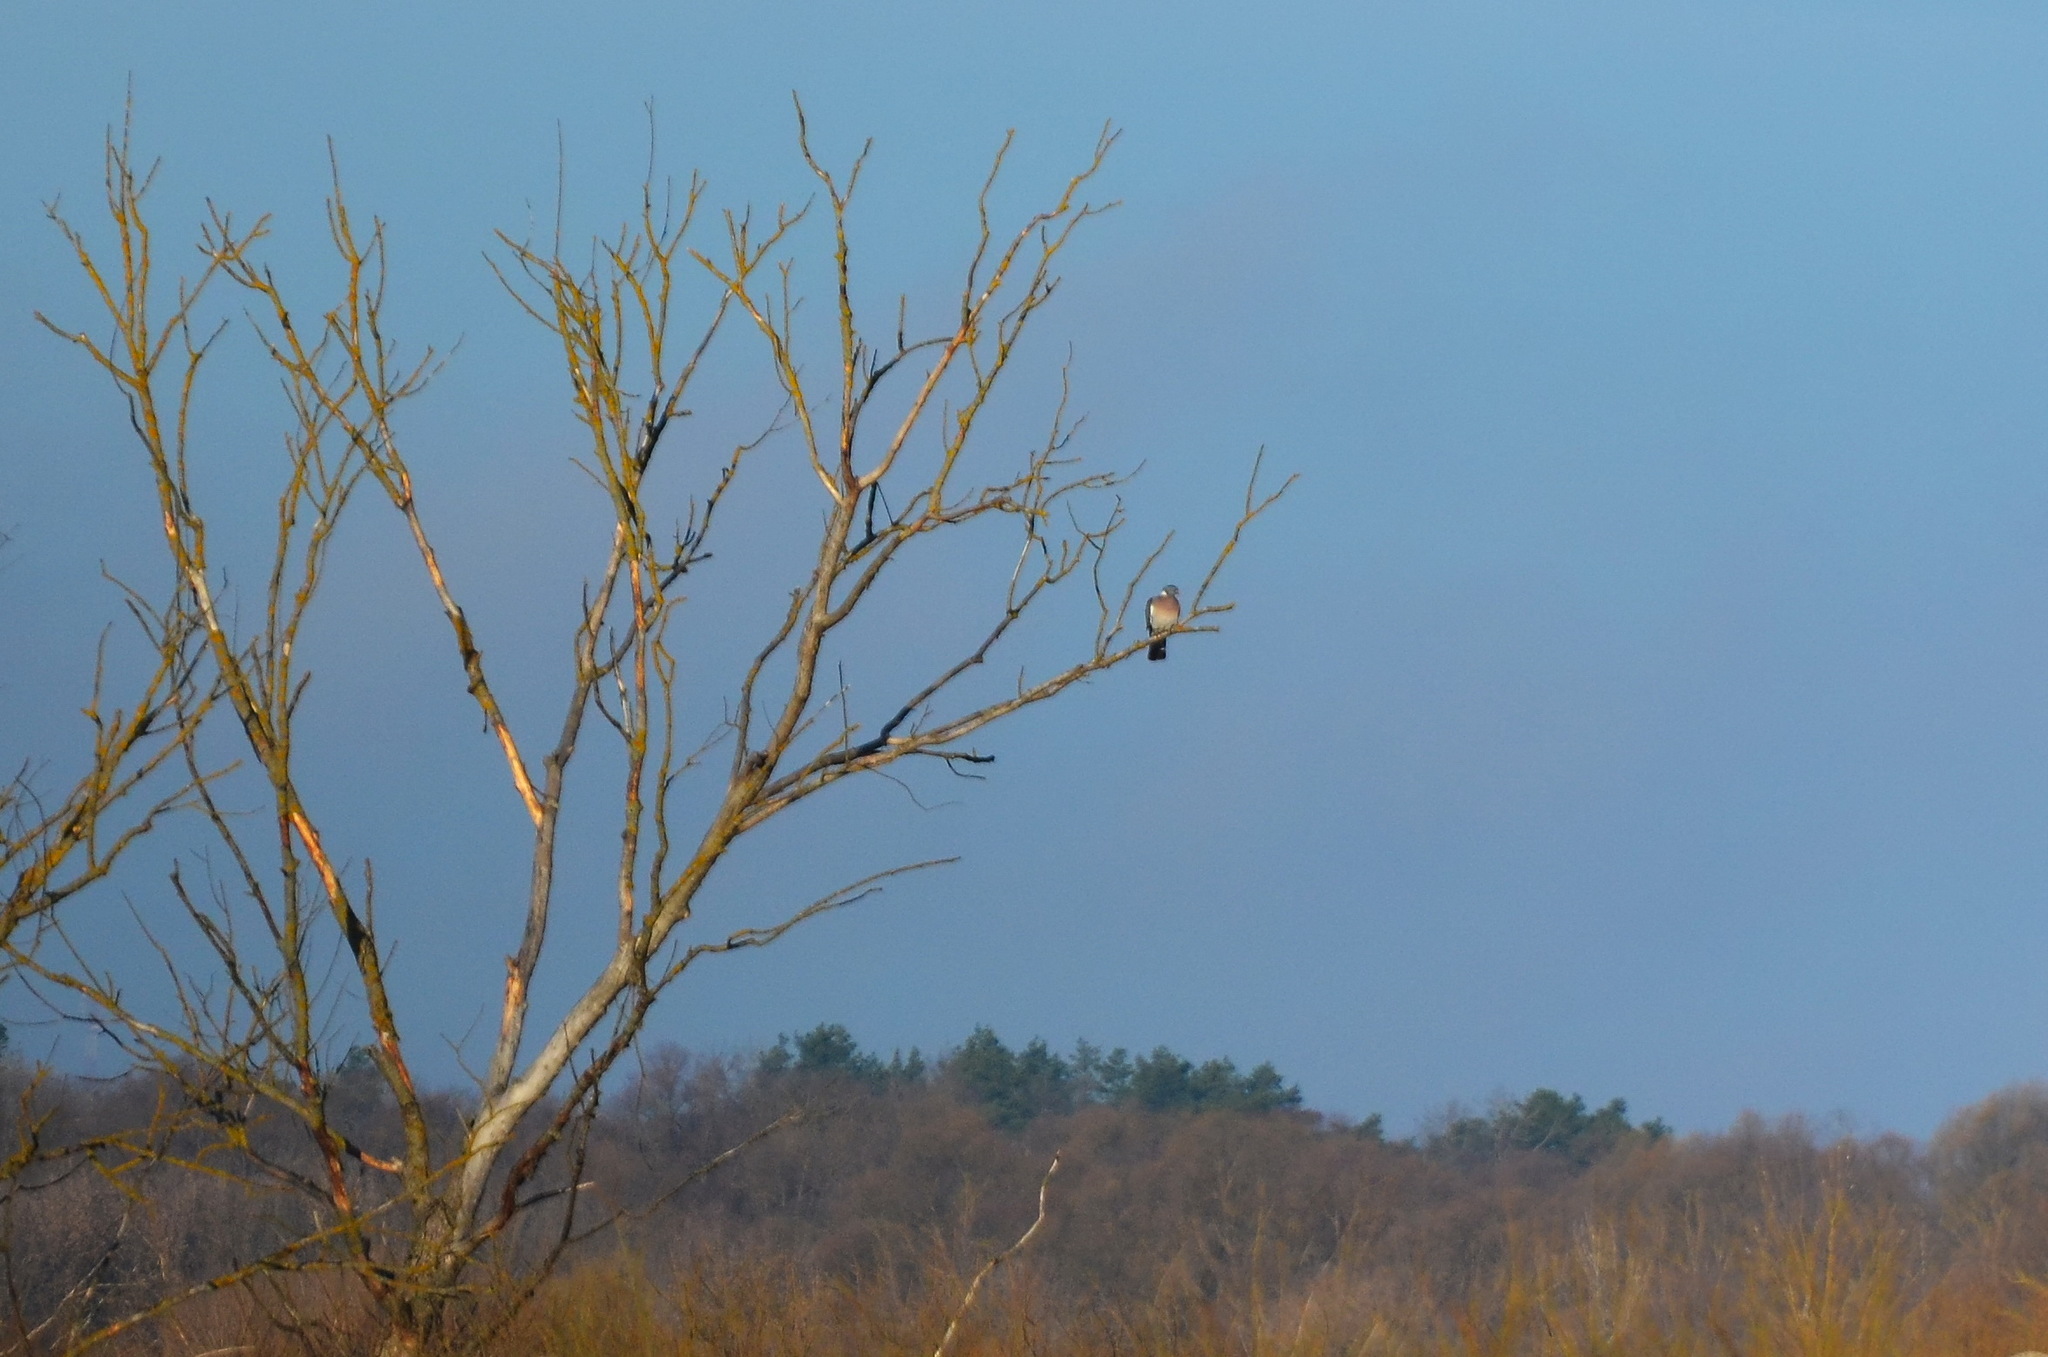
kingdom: Animalia
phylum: Chordata
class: Aves
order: Columbiformes
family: Columbidae
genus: Columba
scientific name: Columba palumbus
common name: Common wood pigeon
